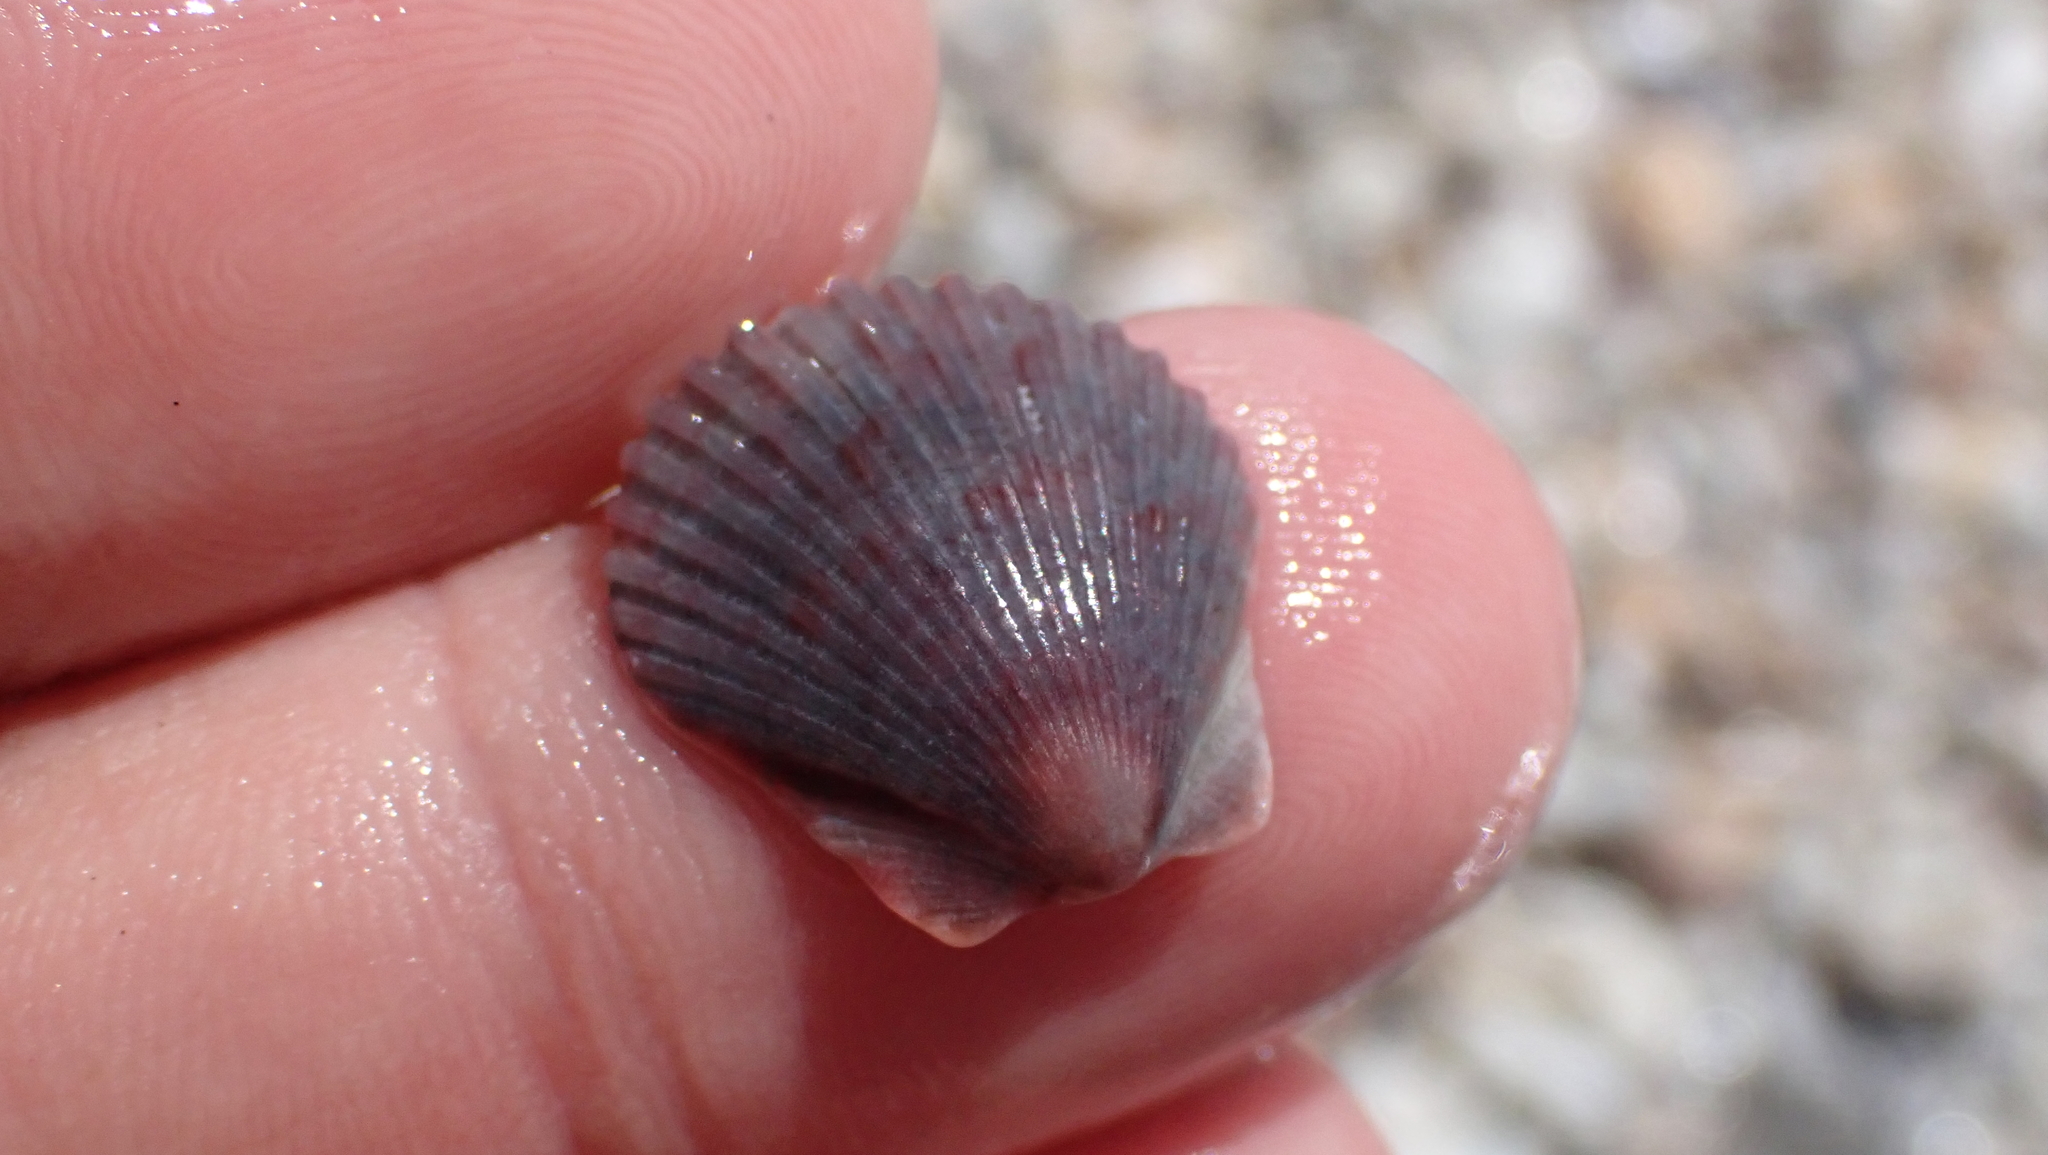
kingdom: Animalia
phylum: Mollusca
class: Bivalvia
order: Pectinida
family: Pectinidae
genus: Argopecten
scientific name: Argopecten gibbus
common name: Atlantic calico scallop
